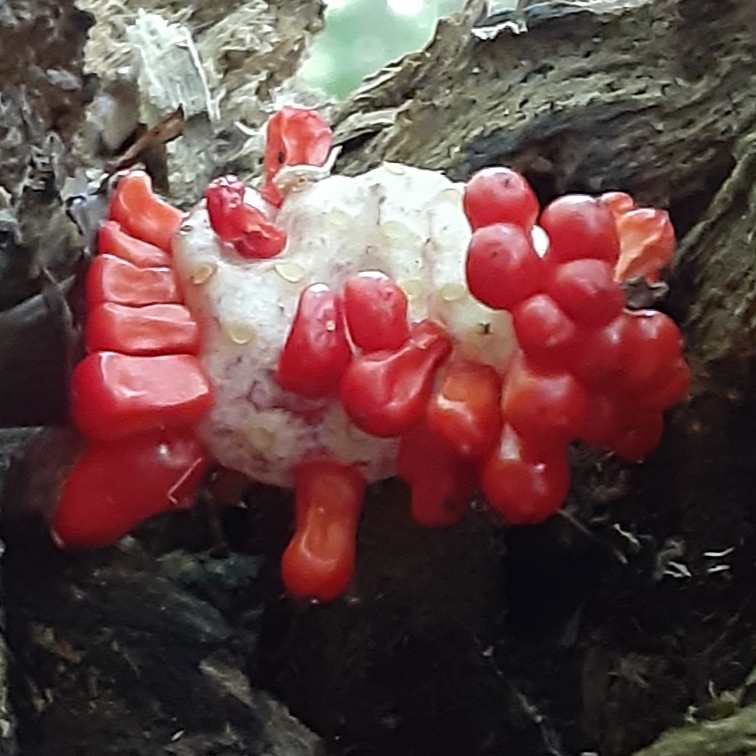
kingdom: Plantae
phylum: Tracheophyta
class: Liliopsida
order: Alismatales
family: Araceae
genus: Arisaema
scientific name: Arisaema triphyllum
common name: Jack-in-the-pulpit
